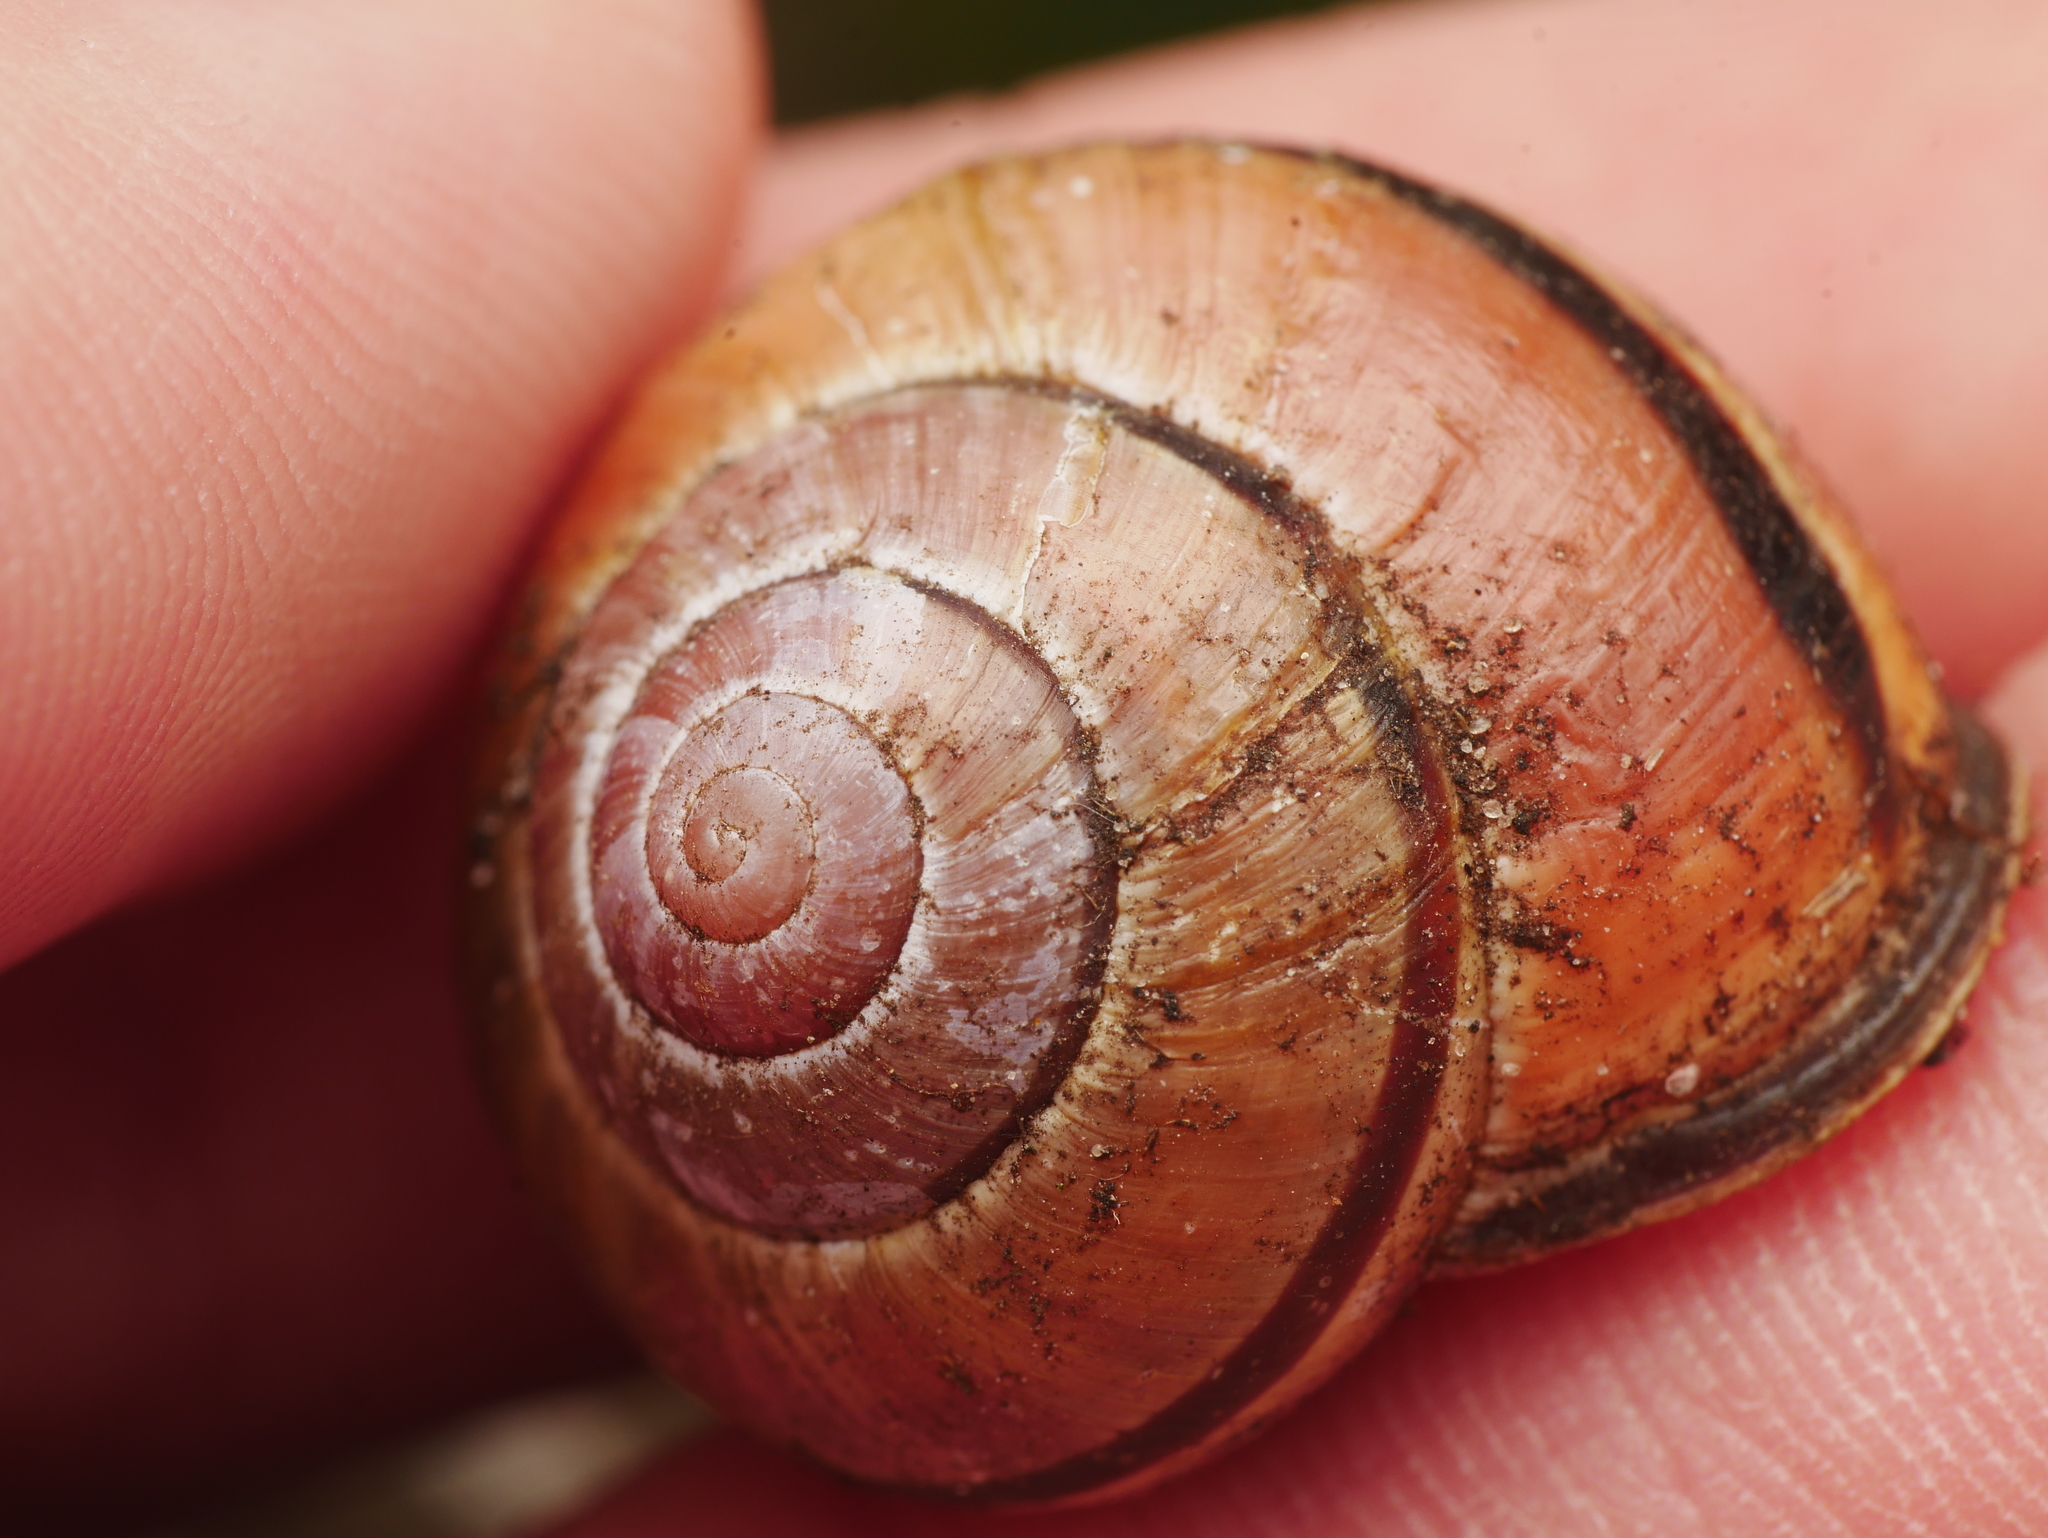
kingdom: Animalia
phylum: Mollusca
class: Gastropoda
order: Stylommatophora
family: Helicidae
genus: Cepaea
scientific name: Cepaea nemoralis
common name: Grovesnail
